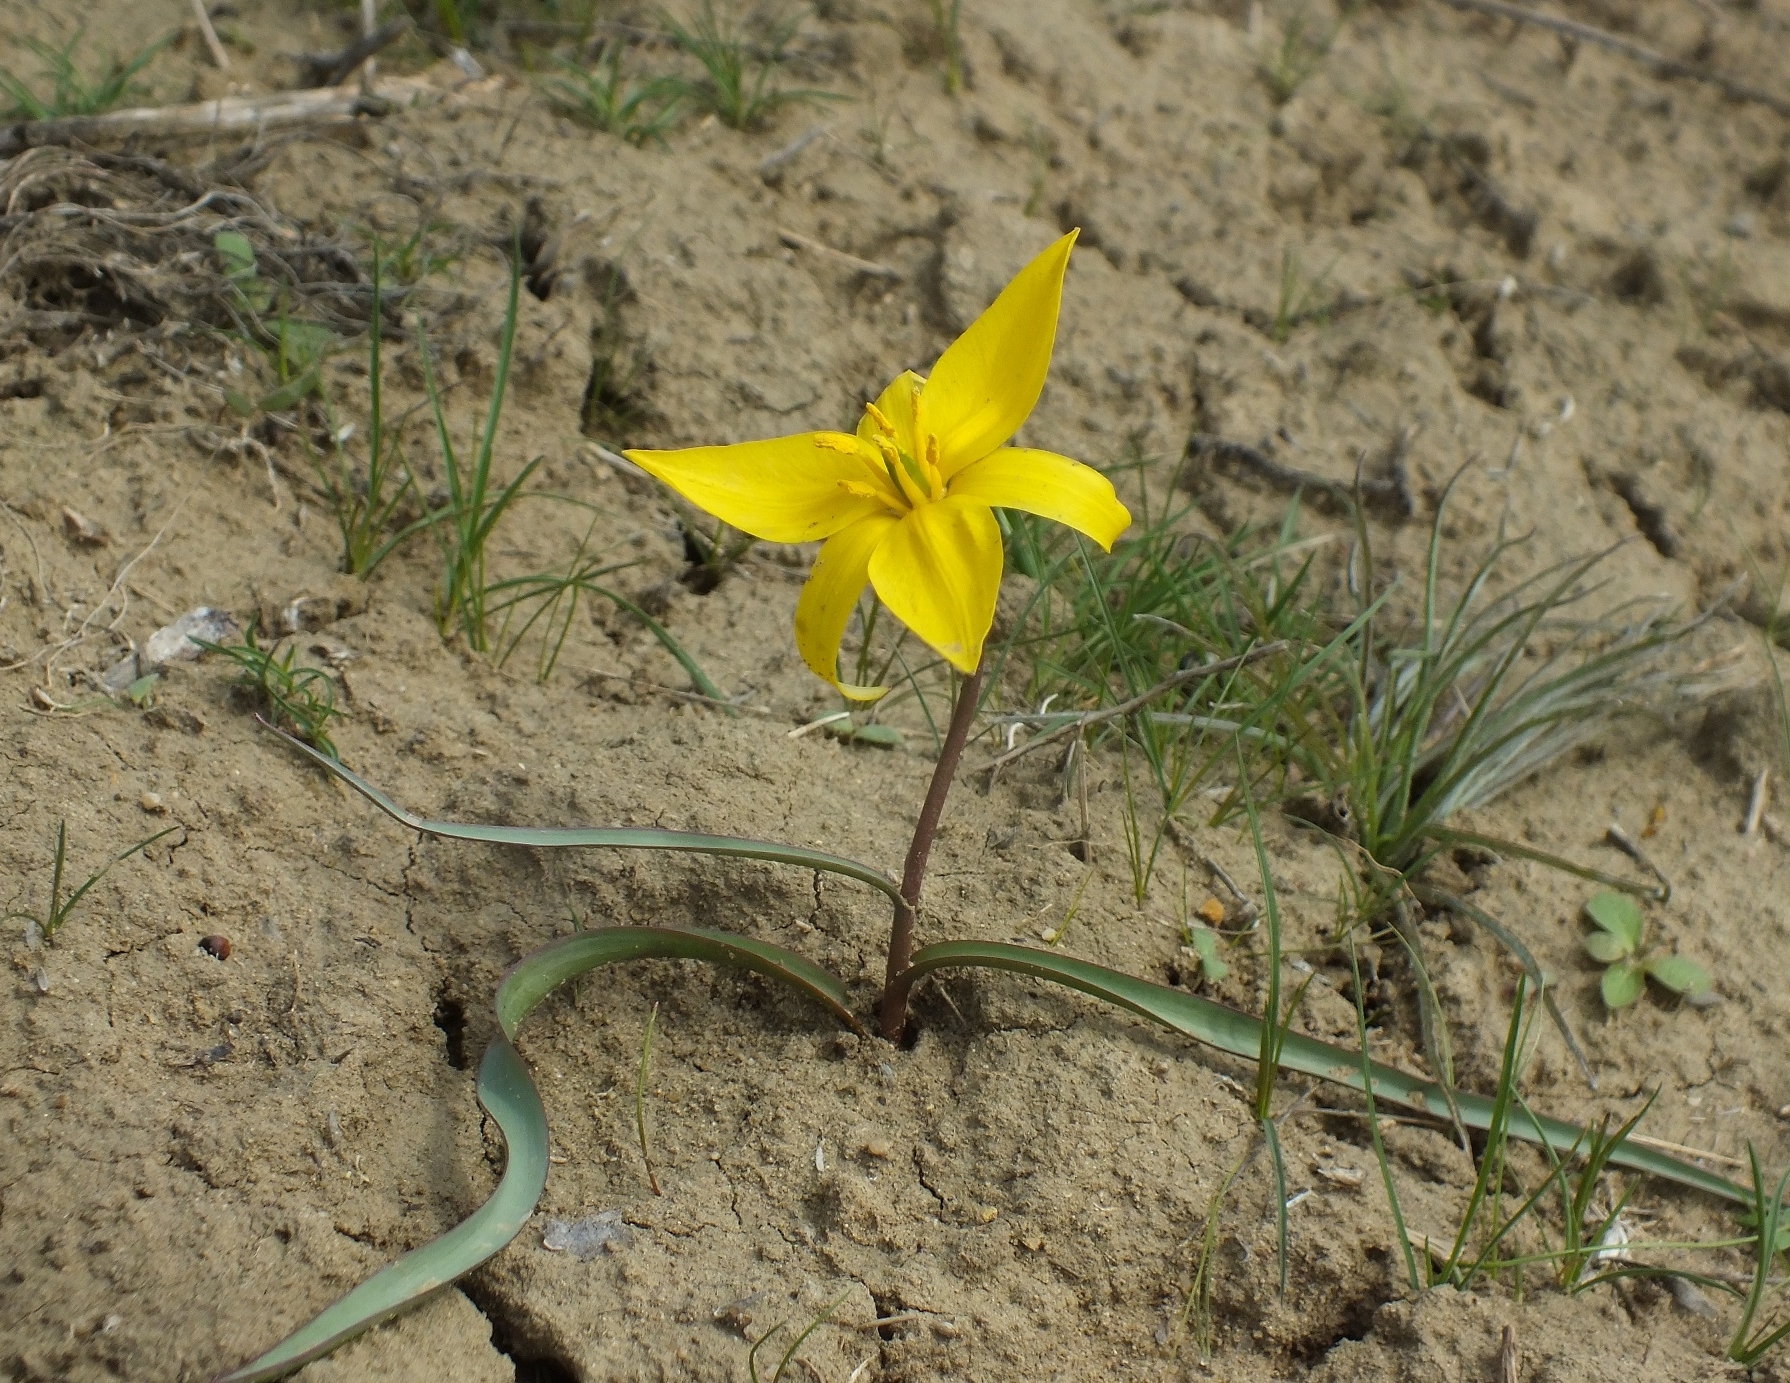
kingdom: Plantae
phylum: Tracheophyta
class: Liliopsida
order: Liliales
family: Liliaceae
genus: Tulipa
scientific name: Tulipa sylvestris
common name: Wild tulip
